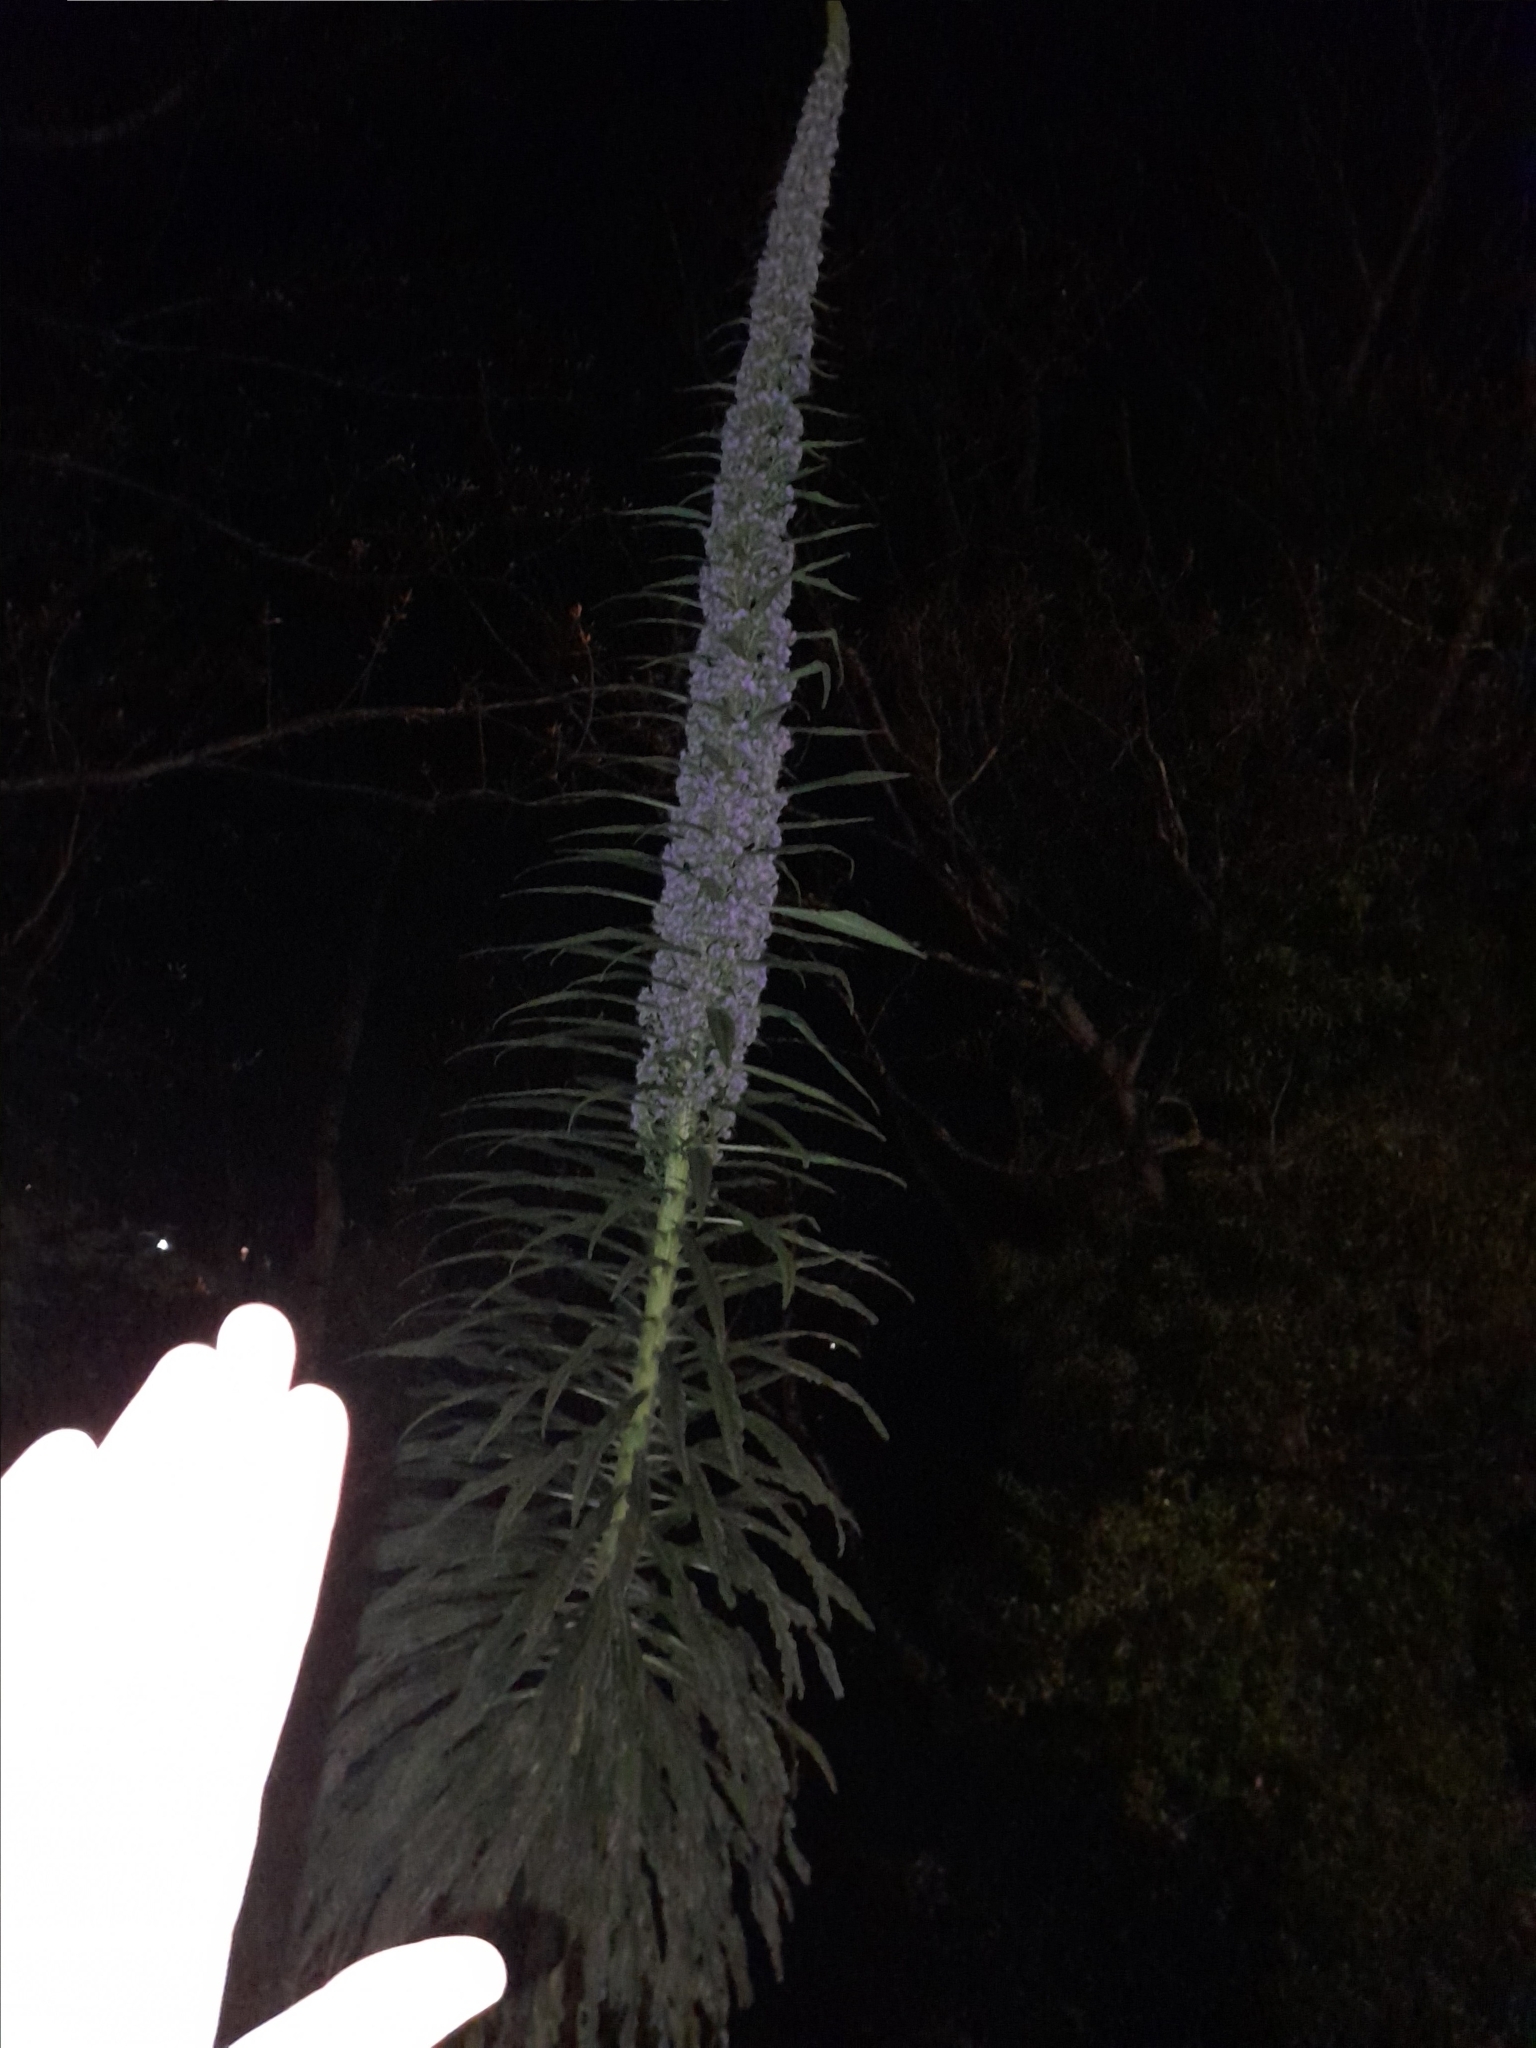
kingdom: Plantae
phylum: Tracheophyta
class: Magnoliopsida
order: Boraginales
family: Boraginaceae
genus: Echium
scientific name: Echium pininana
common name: Giant viper's-bugloss
